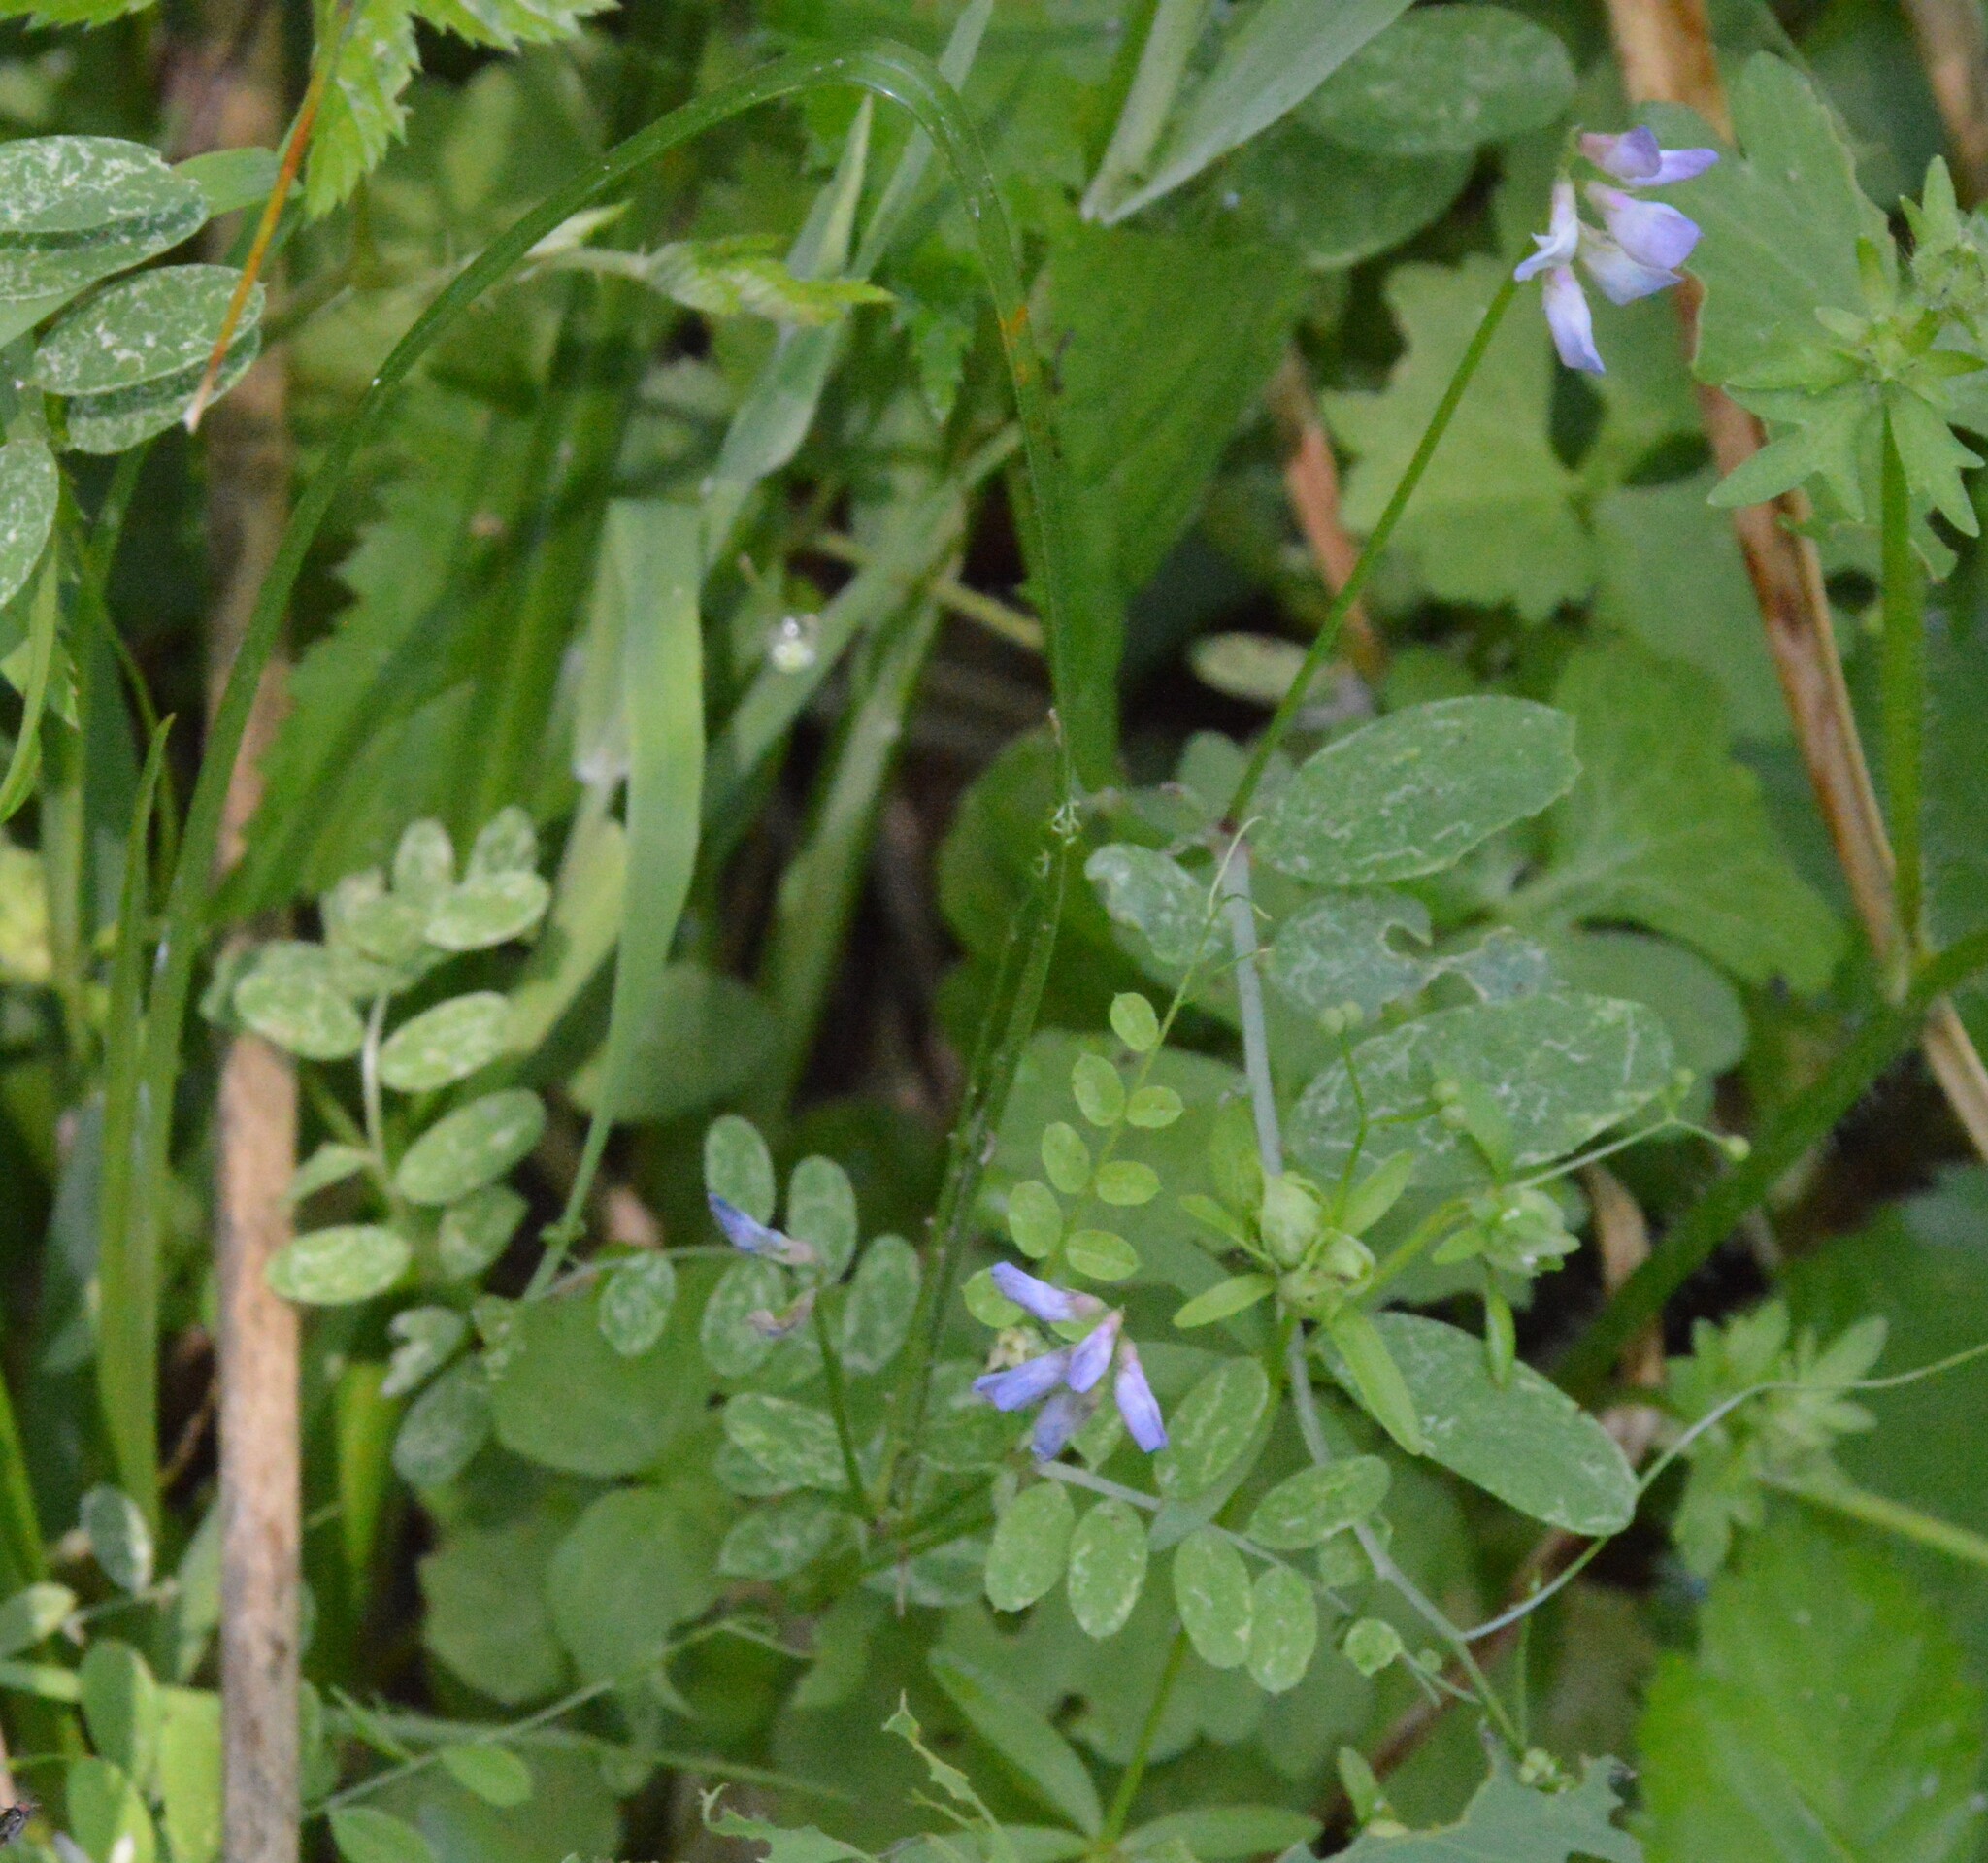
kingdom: Plantae
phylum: Tracheophyta
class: Magnoliopsida
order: Fabales
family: Fabaceae
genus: Vicia
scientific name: Vicia ludoviciana
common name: Louisiana vetch
